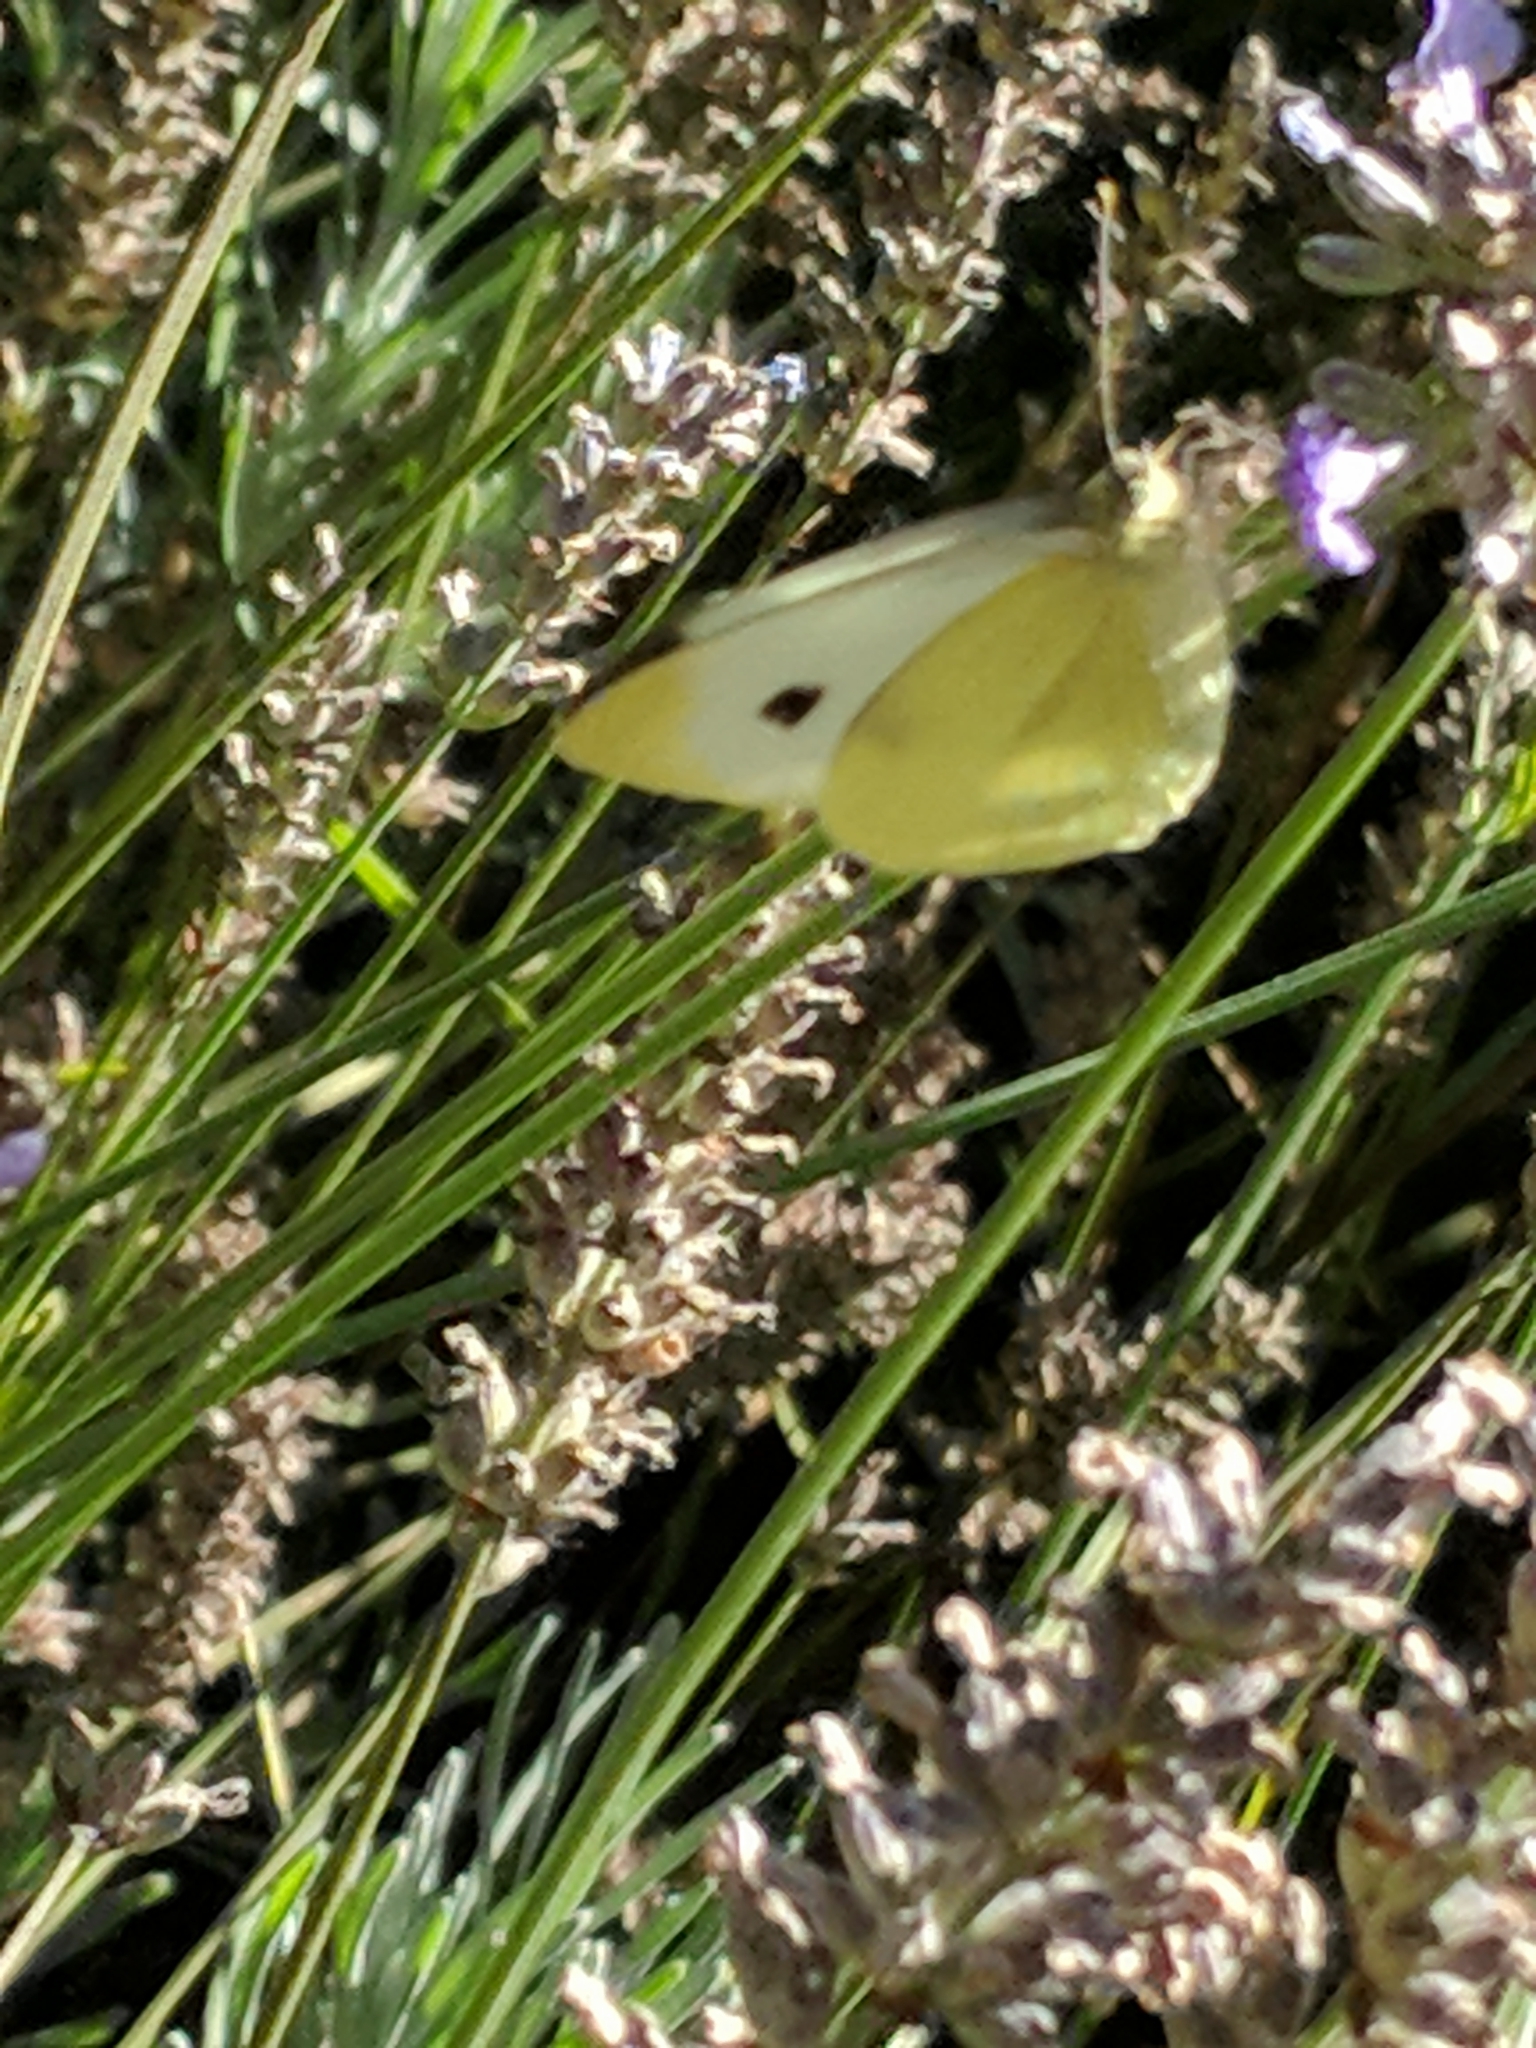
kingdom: Animalia
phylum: Arthropoda
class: Insecta
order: Lepidoptera
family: Pieridae
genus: Pieris
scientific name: Pieris rapae
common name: Small white
